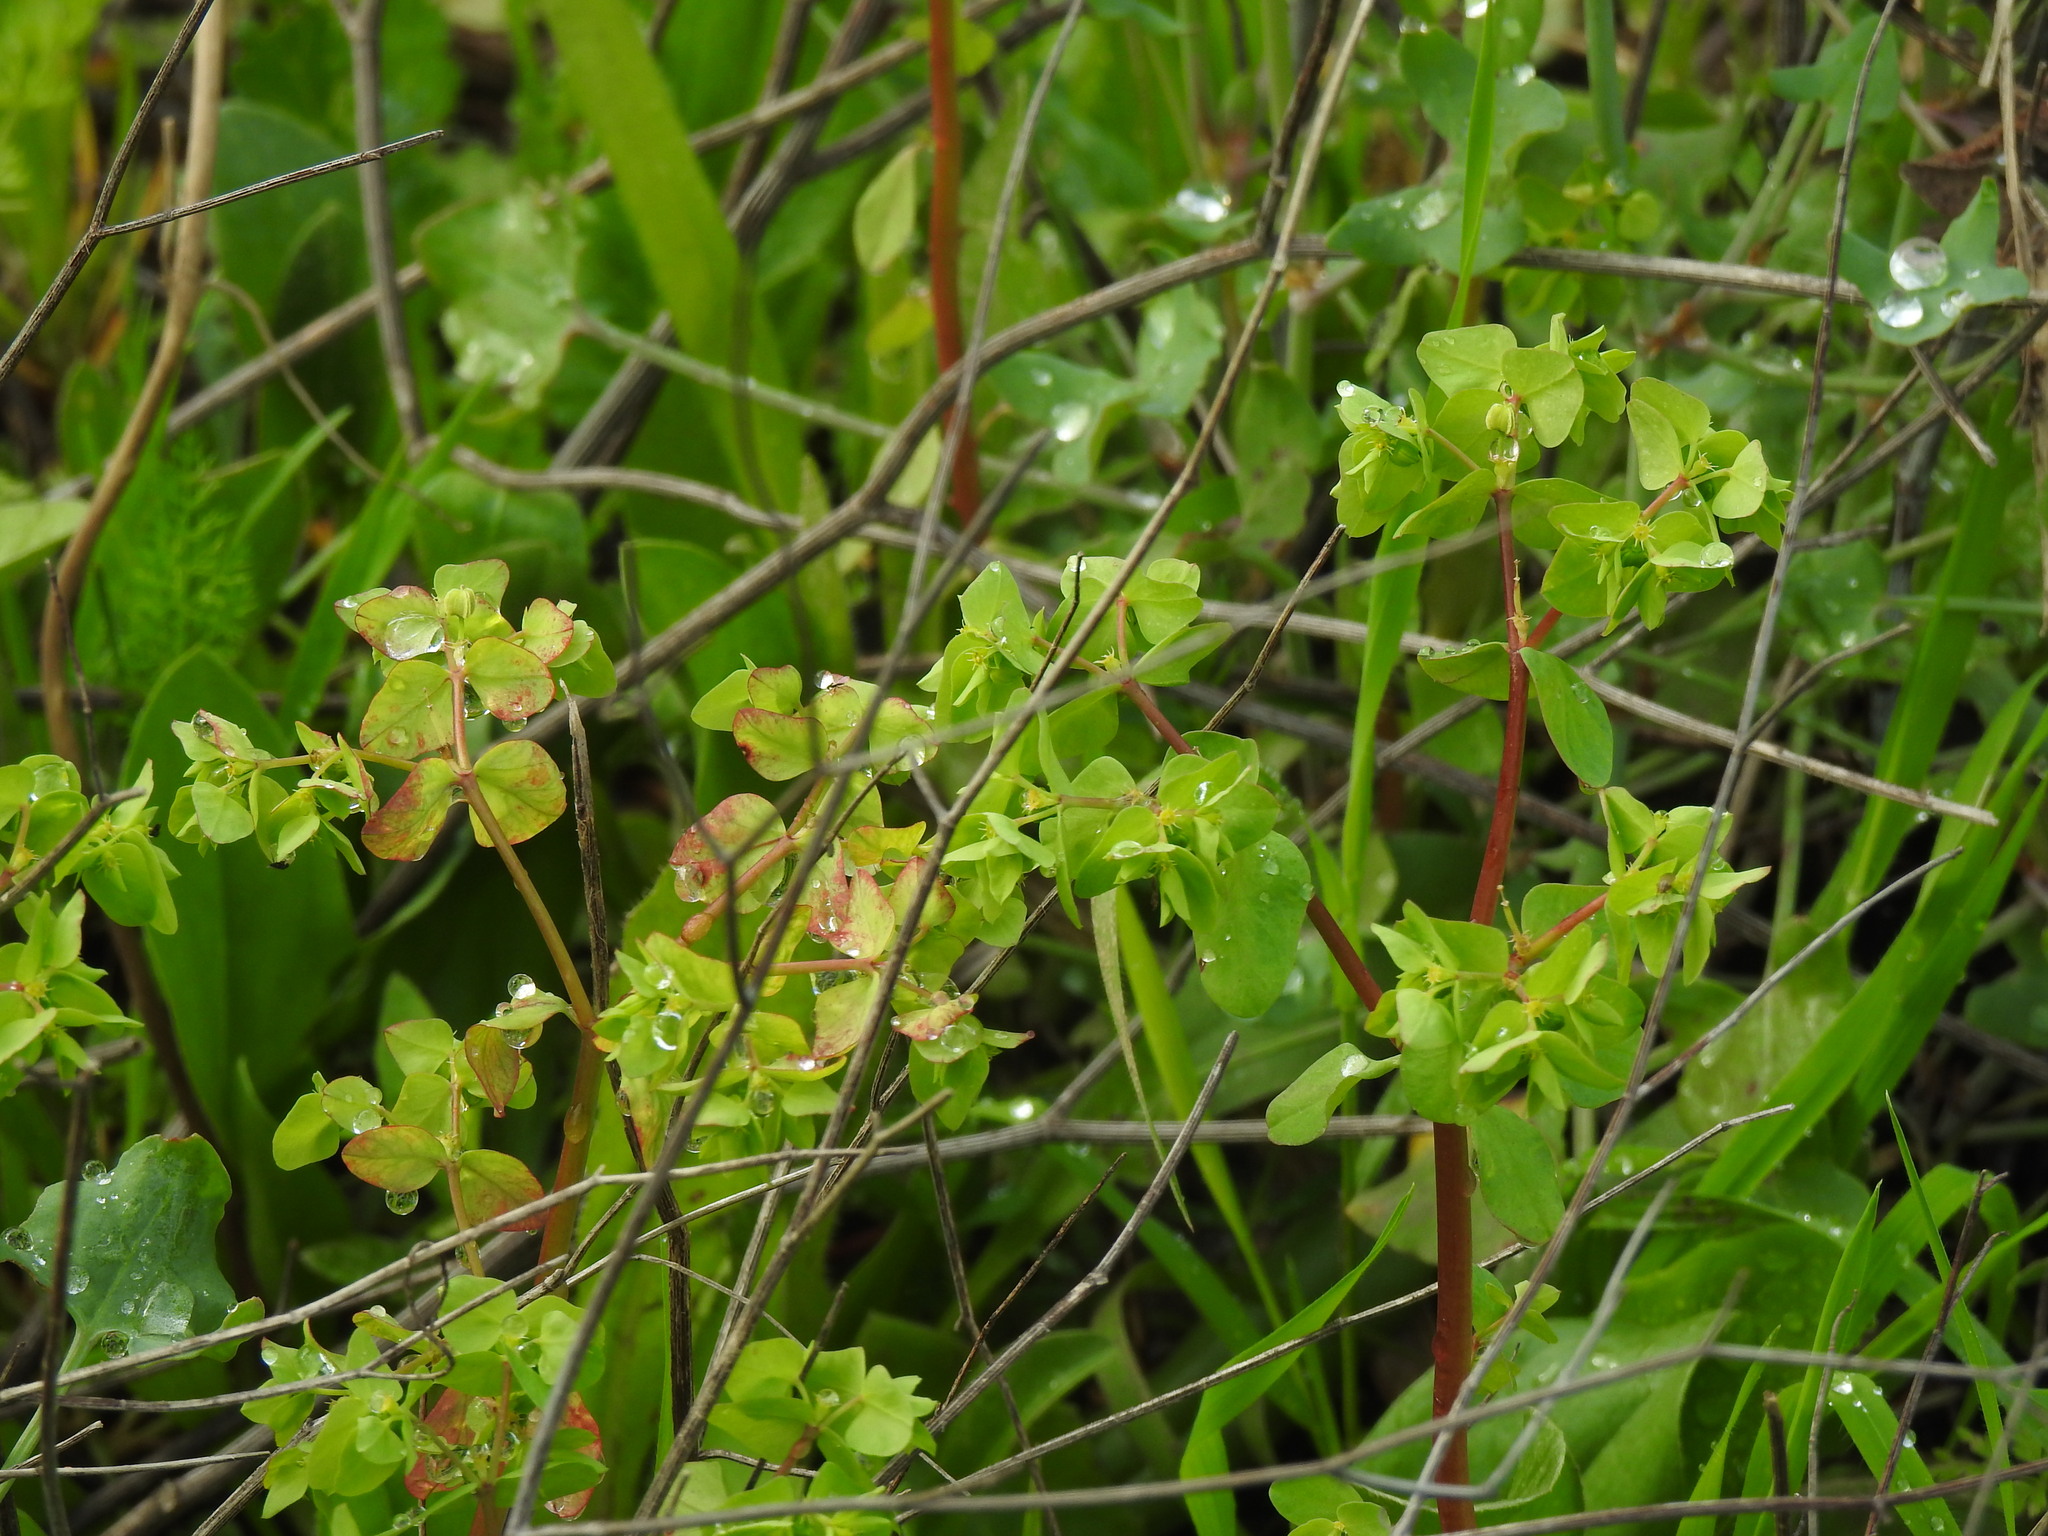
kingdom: Plantae
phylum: Tracheophyta
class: Magnoliopsida
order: Malpighiales
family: Euphorbiaceae
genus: Euphorbia
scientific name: Euphorbia peplus
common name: Petty spurge
